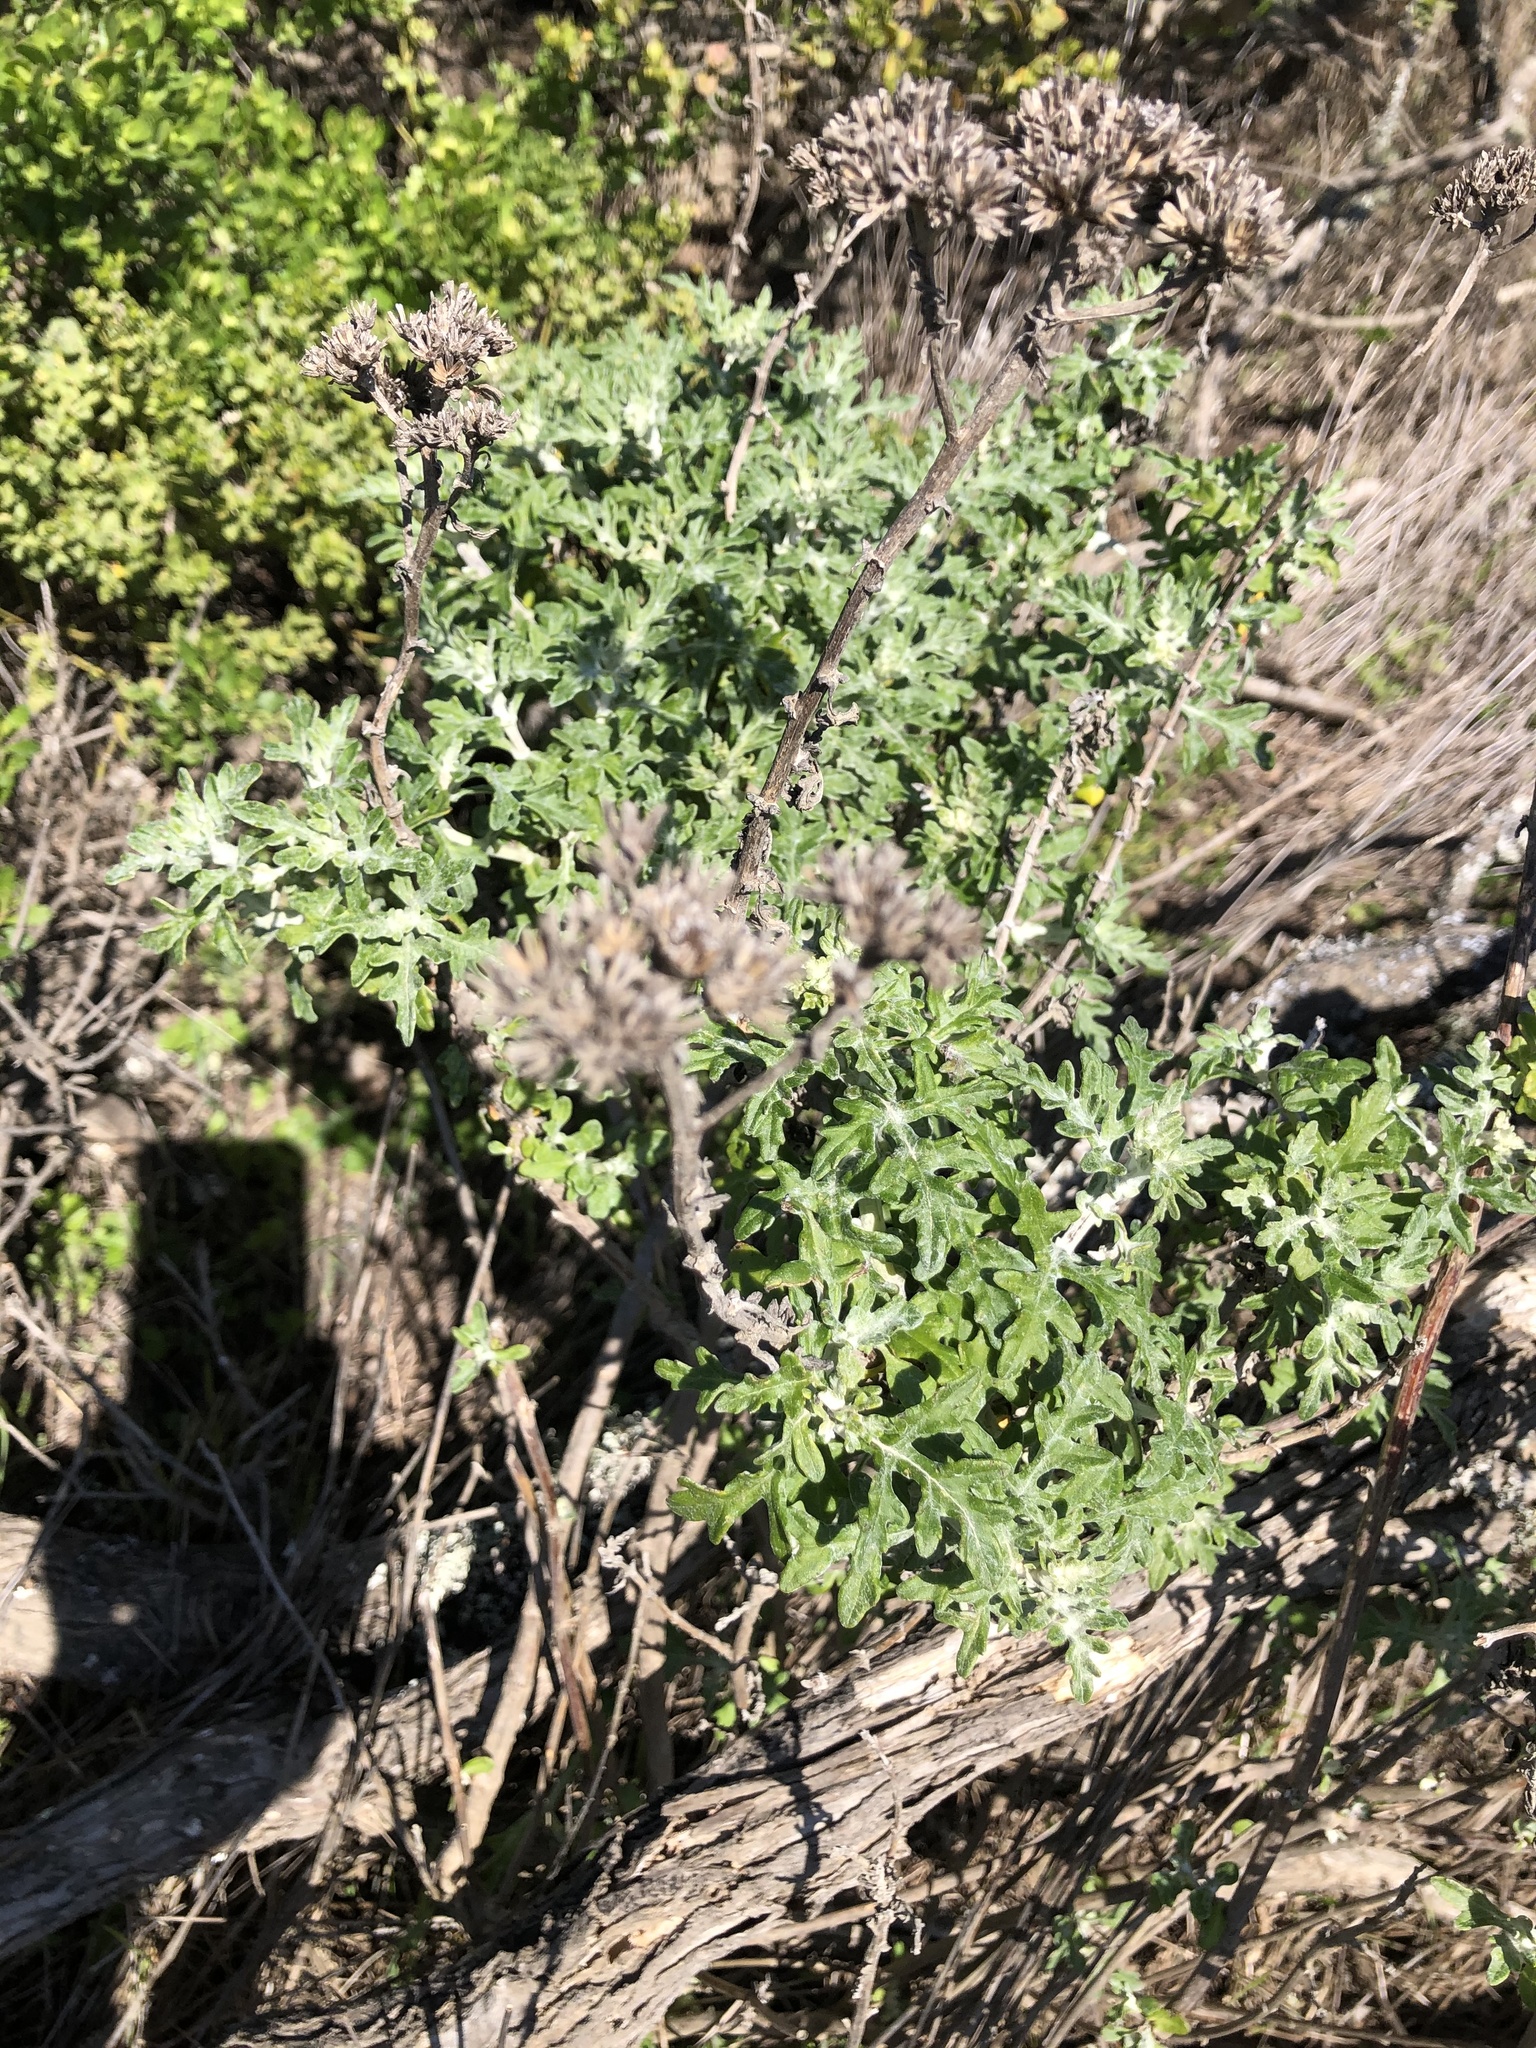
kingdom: Plantae
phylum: Tracheophyta
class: Magnoliopsida
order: Asterales
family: Asteraceae
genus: Eriophyllum
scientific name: Eriophyllum staechadifolium
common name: Lizardtail
